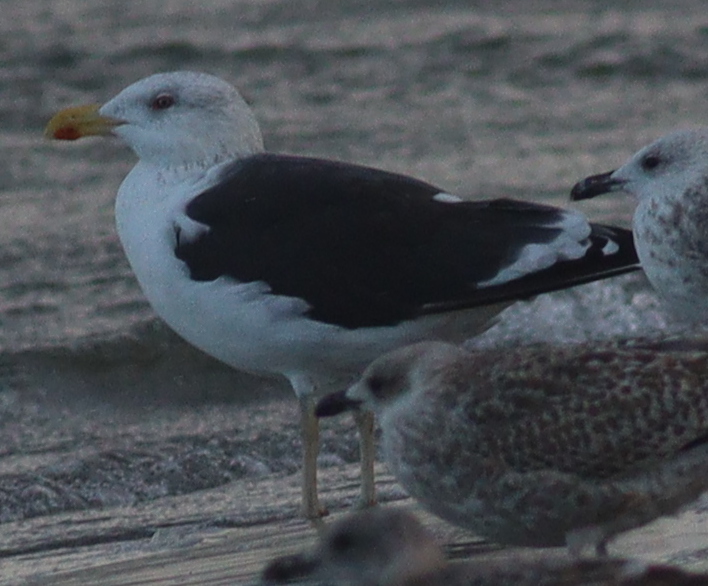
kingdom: Animalia
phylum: Chordata
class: Aves
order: Charadriiformes
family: Laridae
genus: Larus
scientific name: Larus marinus
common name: Great black-backed gull
